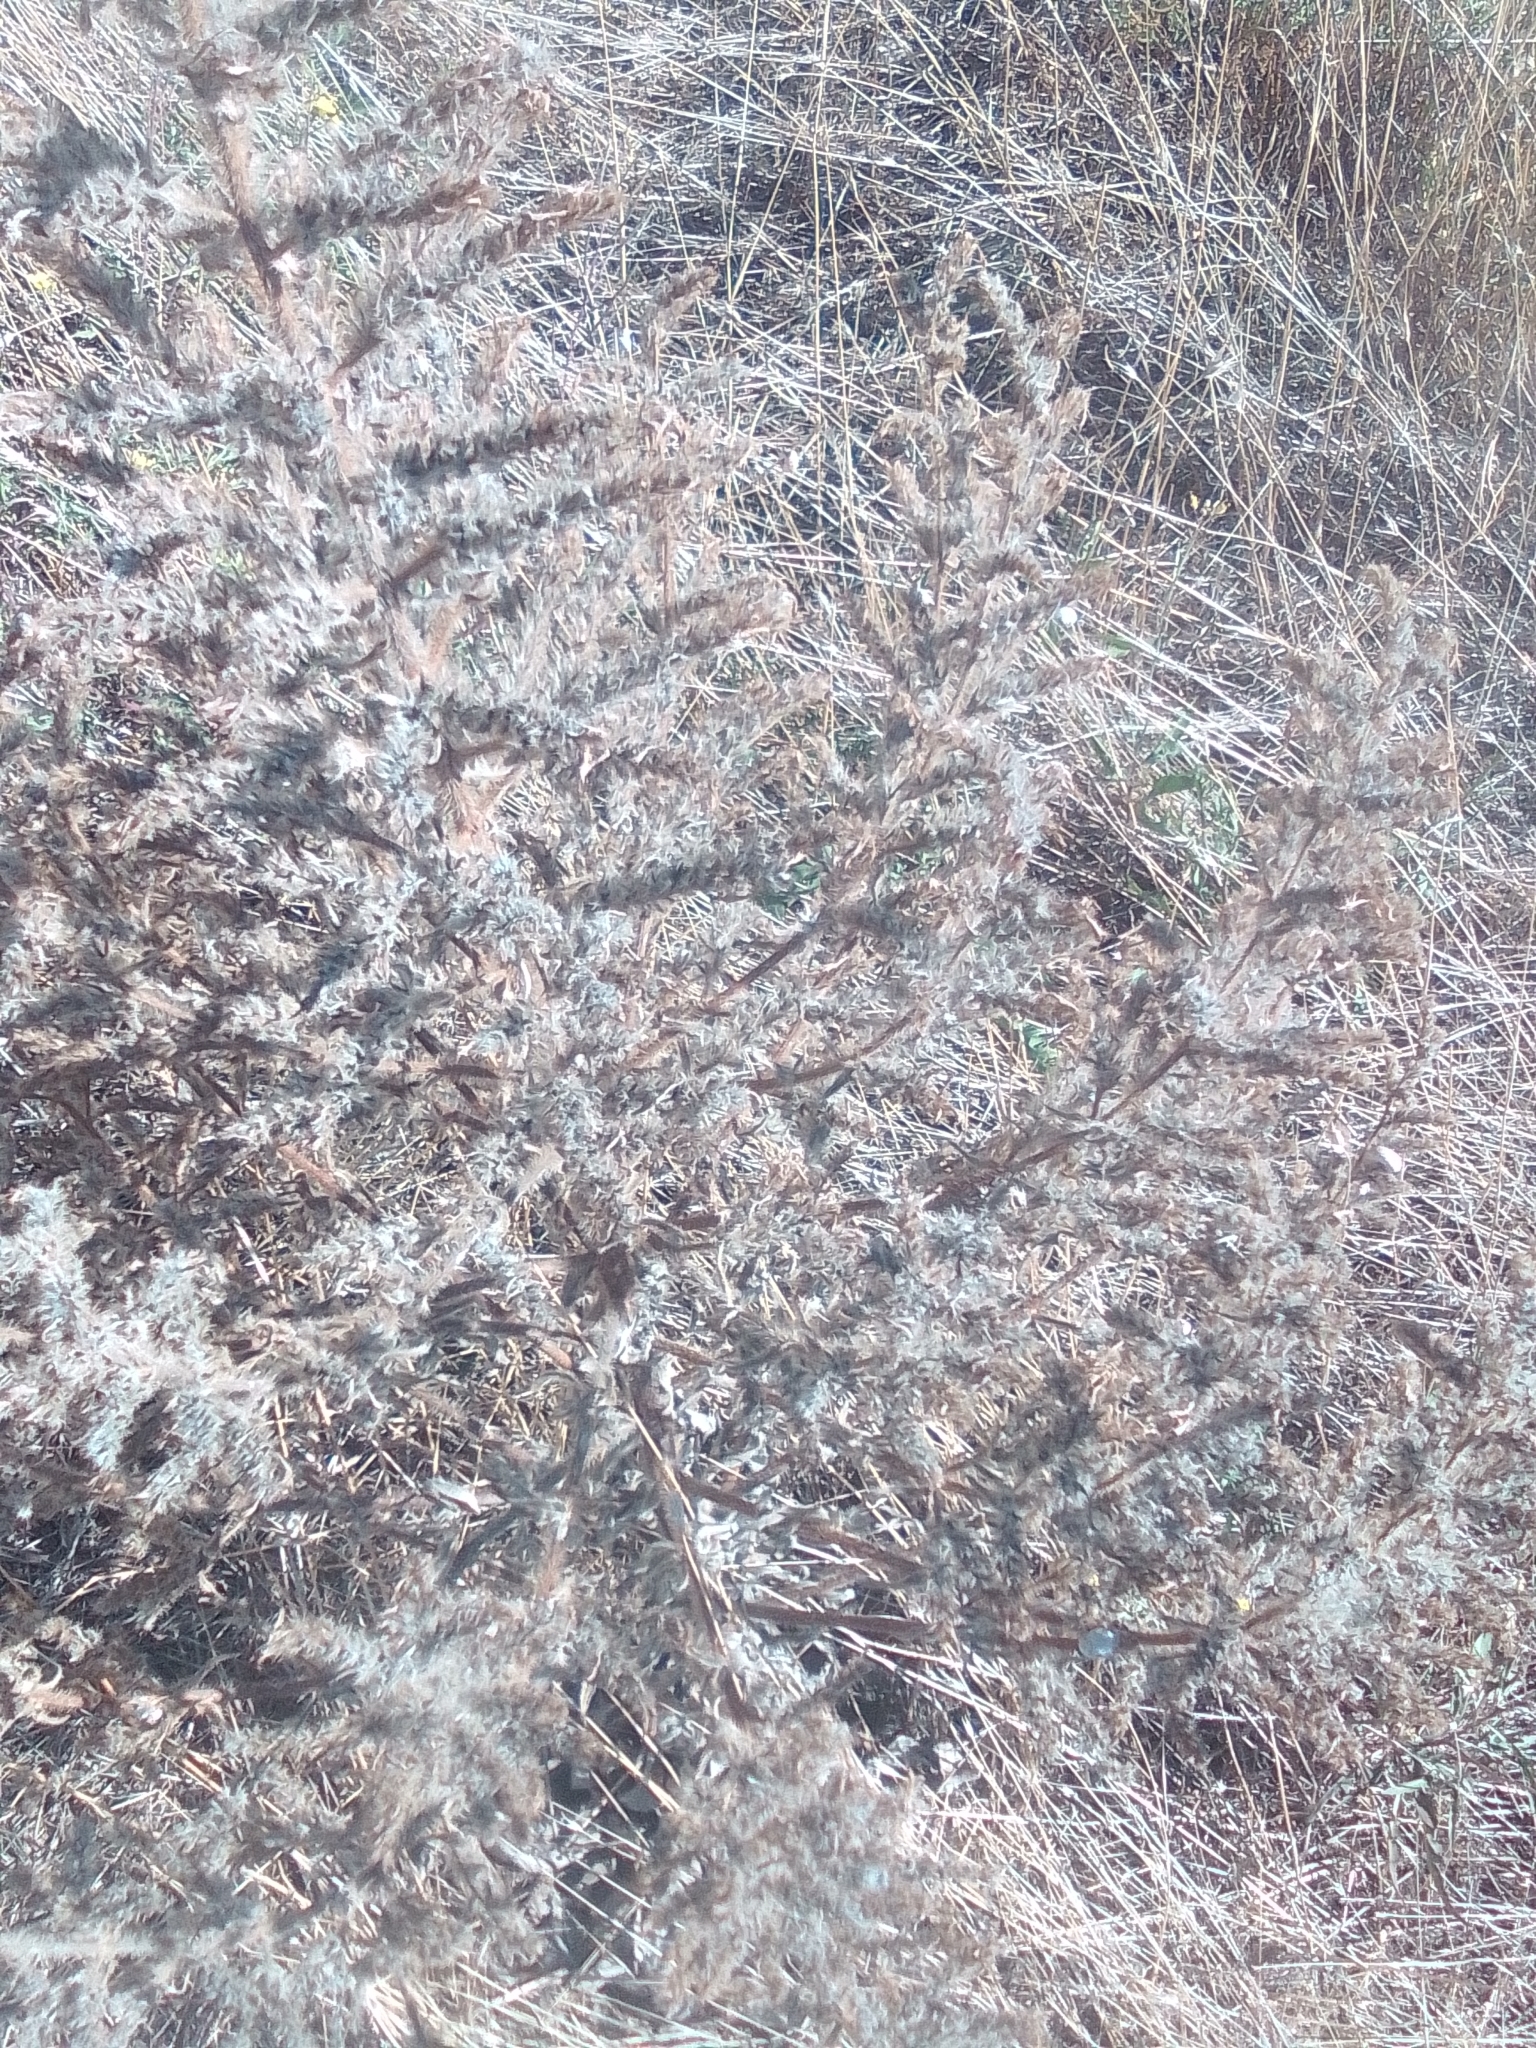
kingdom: Plantae
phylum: Tracheophyta
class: Magnoliopsida
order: Boraginales
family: Boraginaceae
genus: Echium
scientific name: Echium italicum
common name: Italian viper's bugloss
